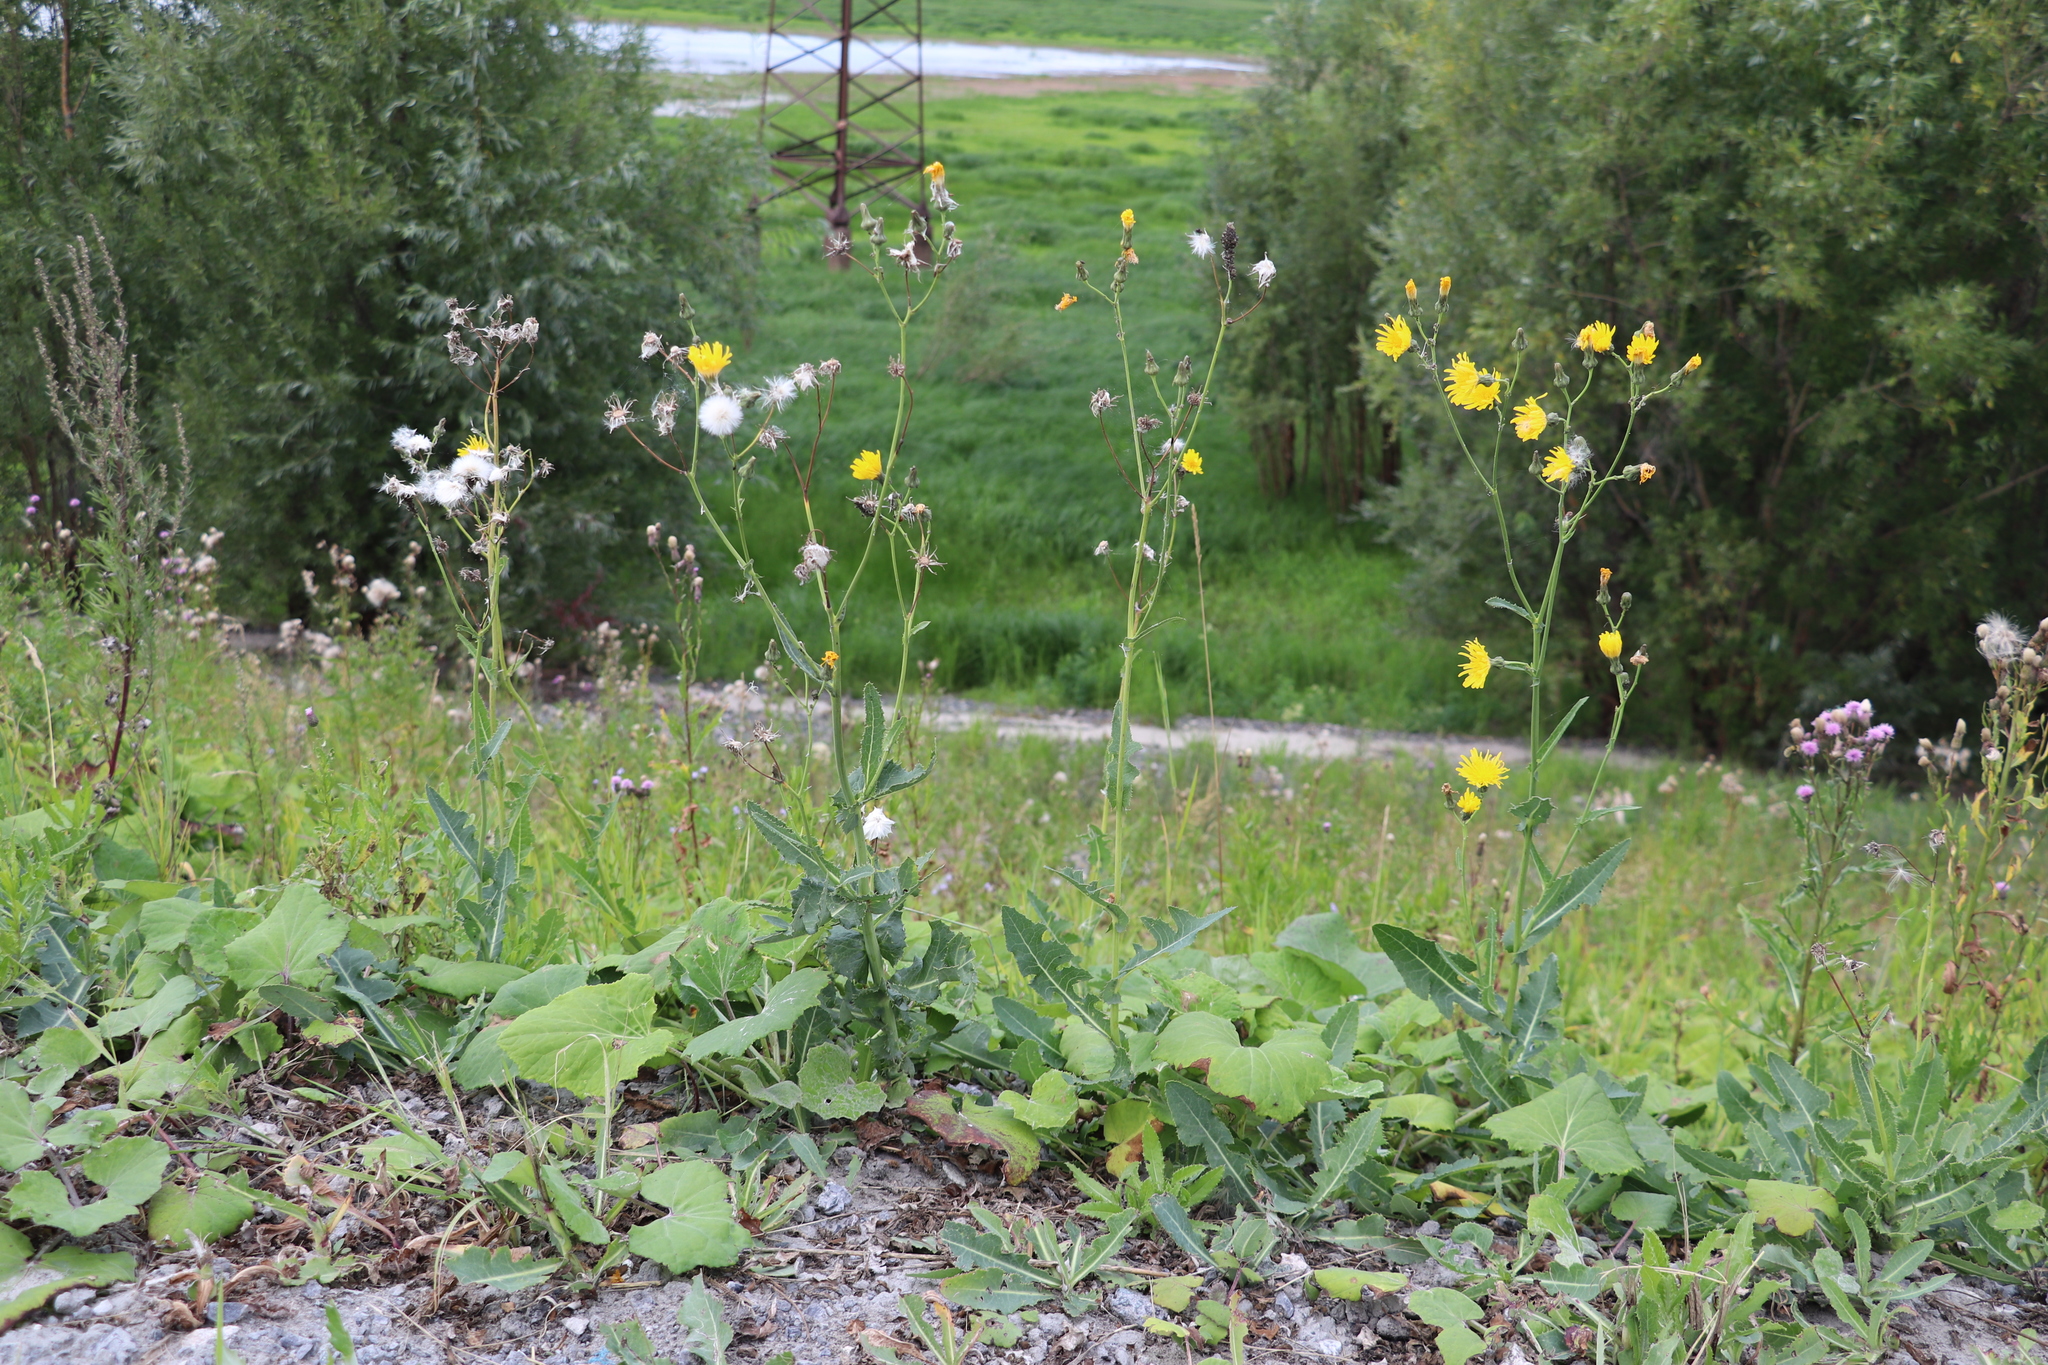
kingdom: Plantae
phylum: Tracheophyta
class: Magnoliopsida
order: Asterales
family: Asteraceae
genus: Sonchus
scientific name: Sonchus arvensis
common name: Perennial sow-thistle
